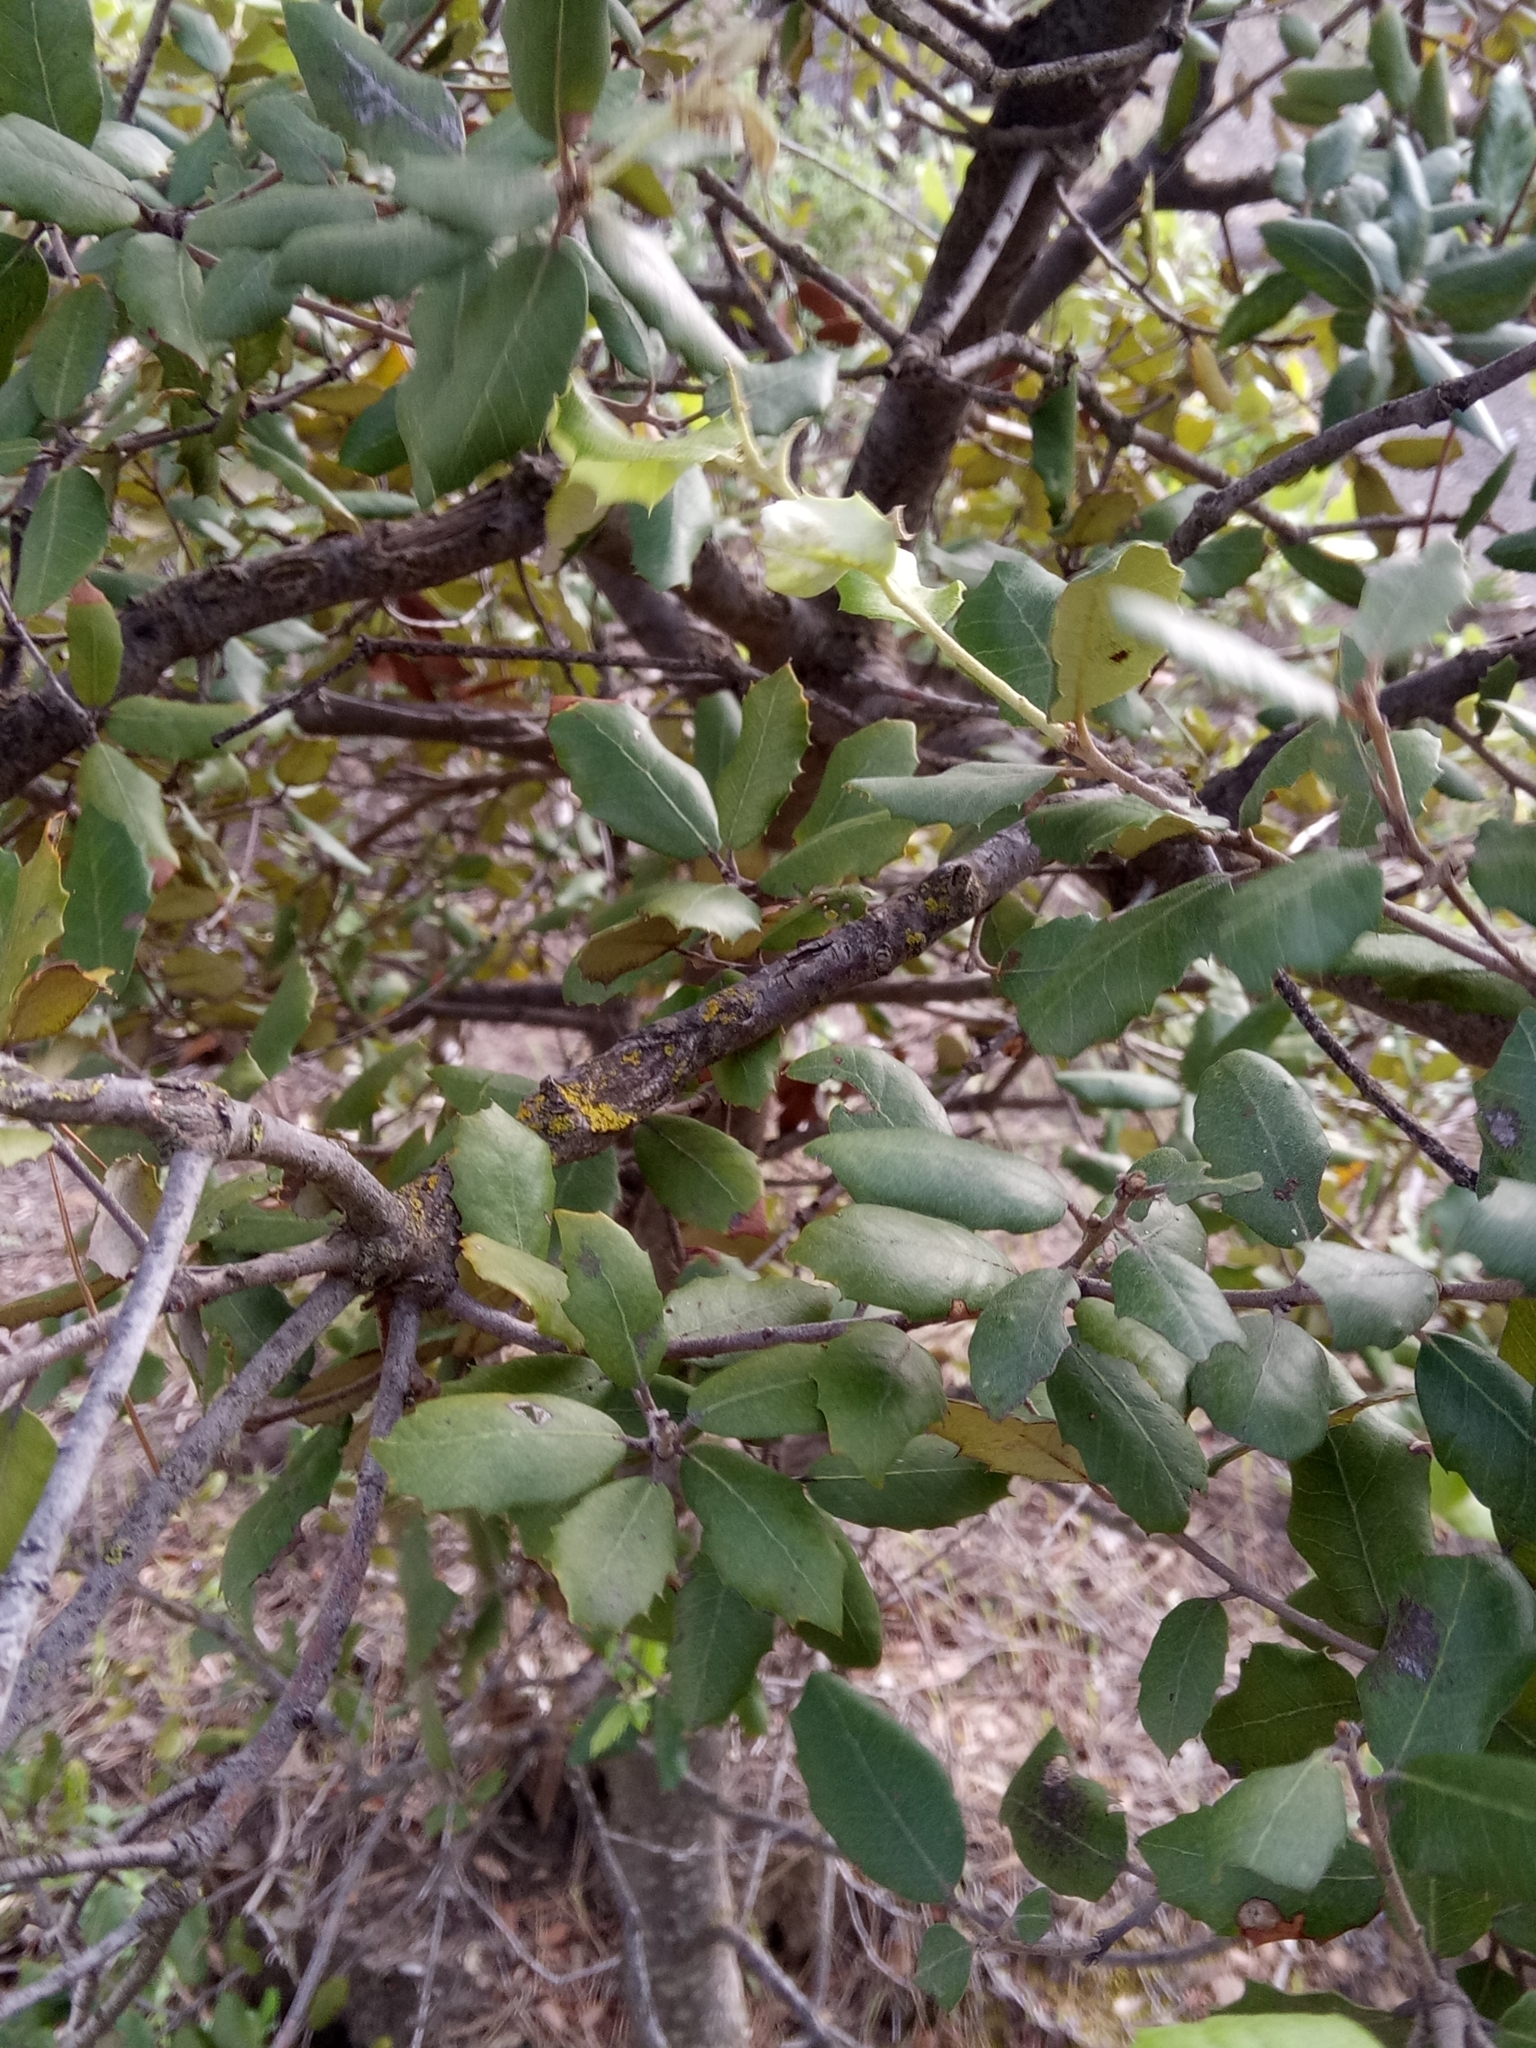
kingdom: Plantae
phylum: Tracheophyta
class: Magnoliopsida
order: Fagales
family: Fagaceae
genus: Quercus
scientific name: Quercus rotundifolia
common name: Holm oak
